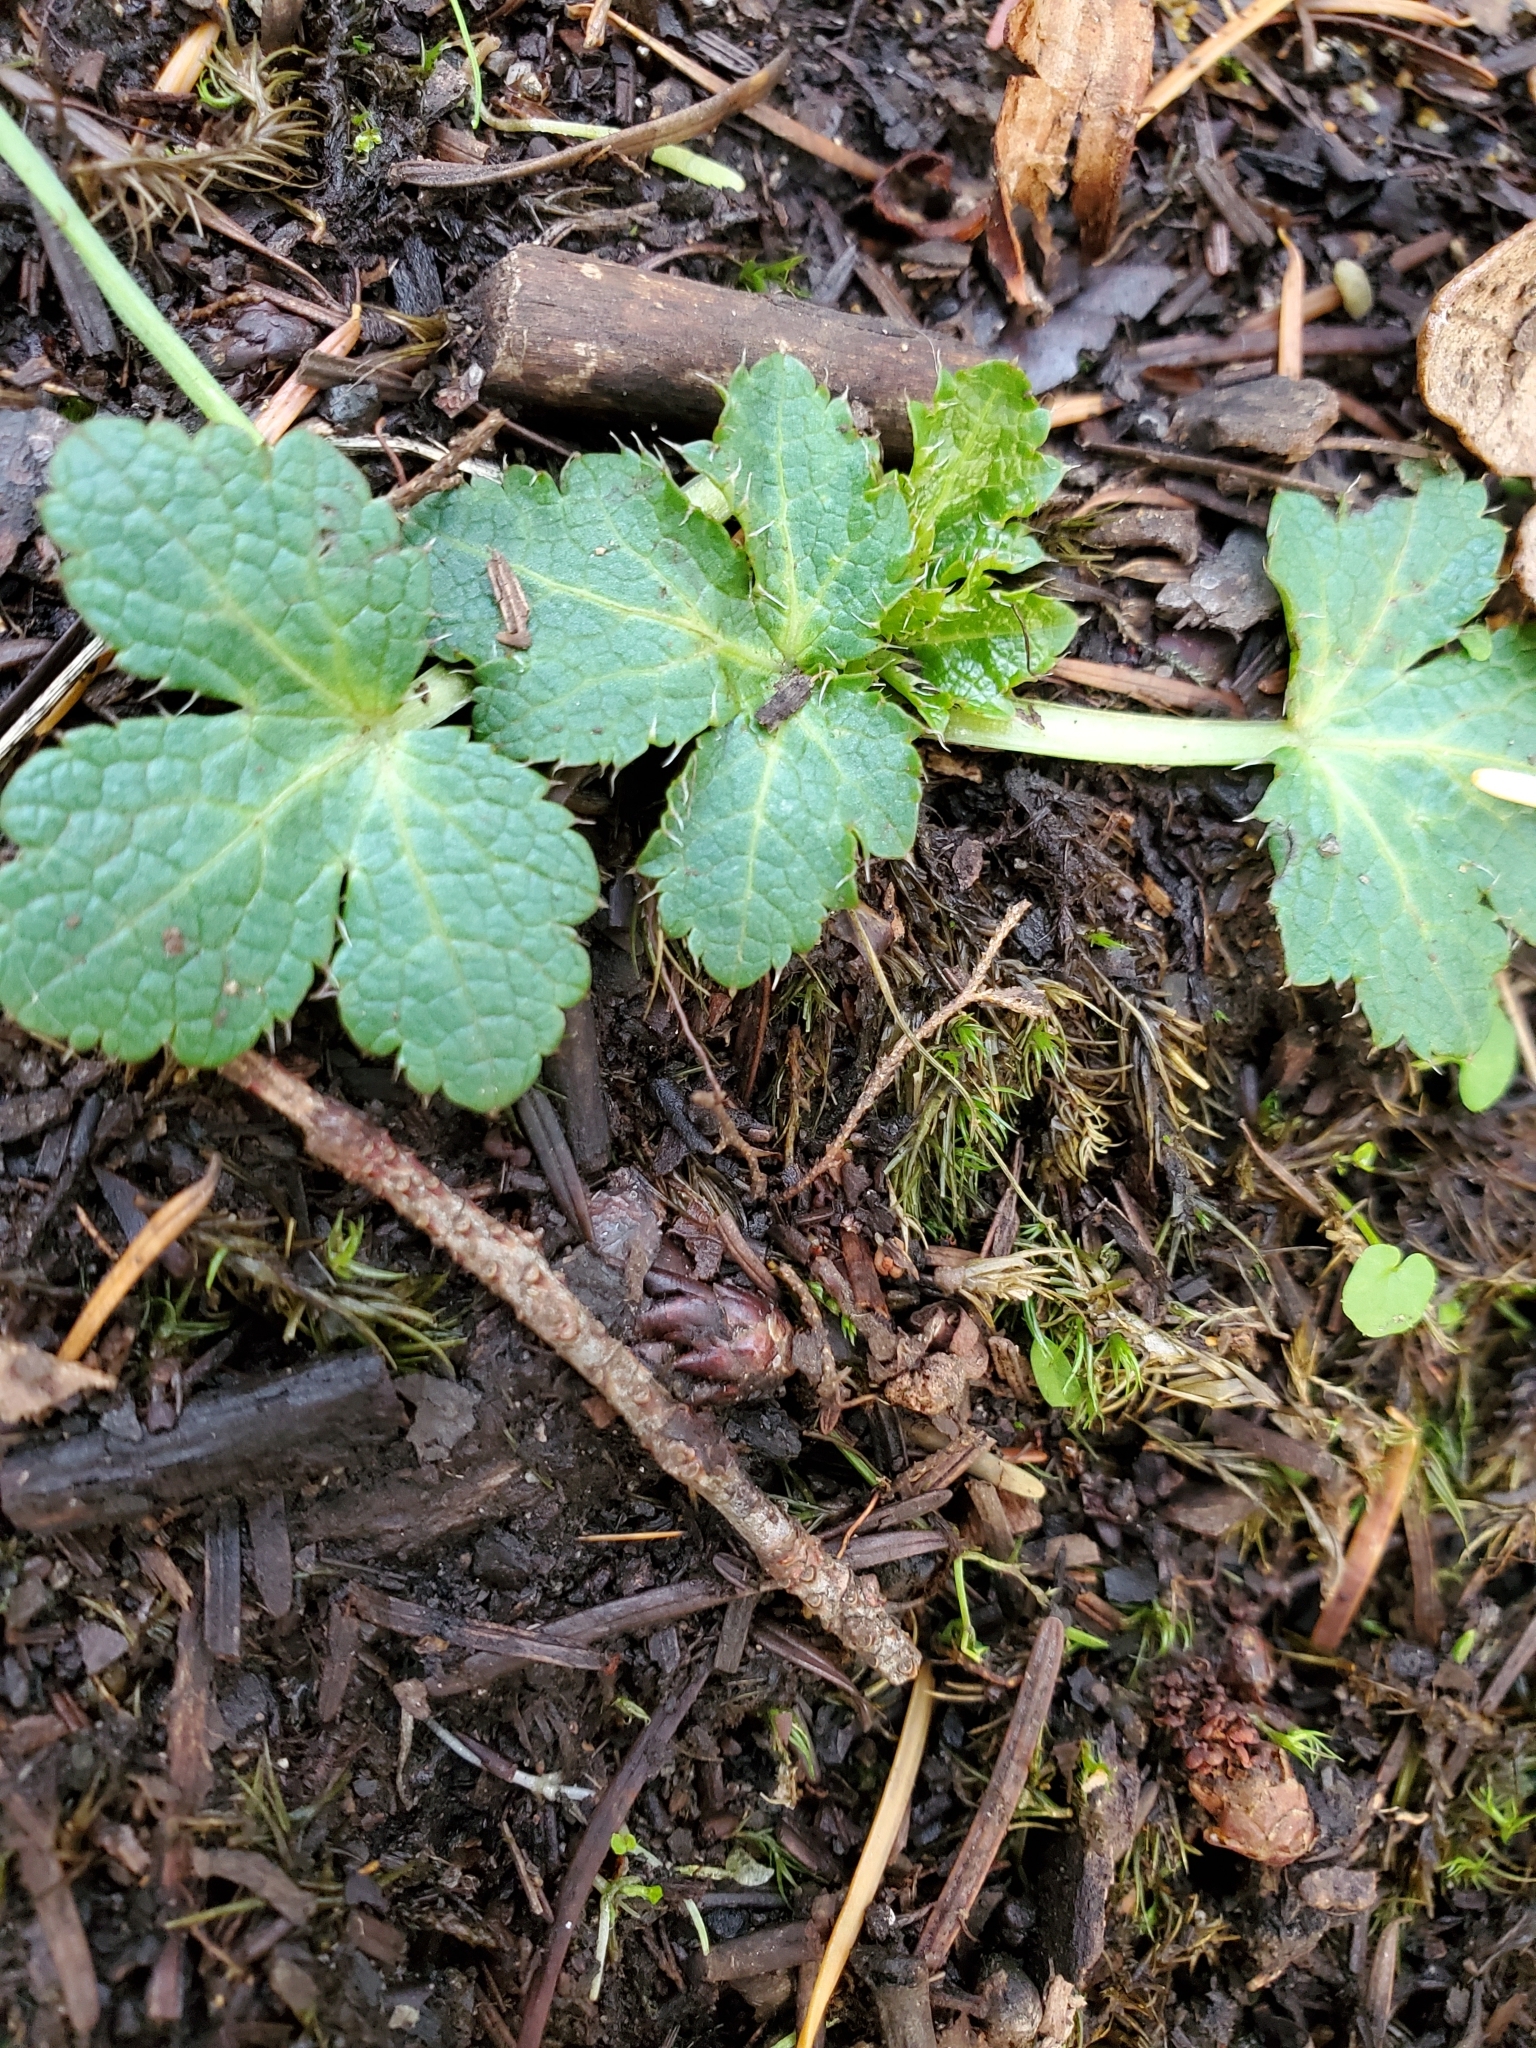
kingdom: Plantae
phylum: Tracheophyta
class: Magnoliopsida
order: Apiales
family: Apiaceae
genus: Sanicula
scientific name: Sanicula crassicaulis
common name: Western snakeroot
